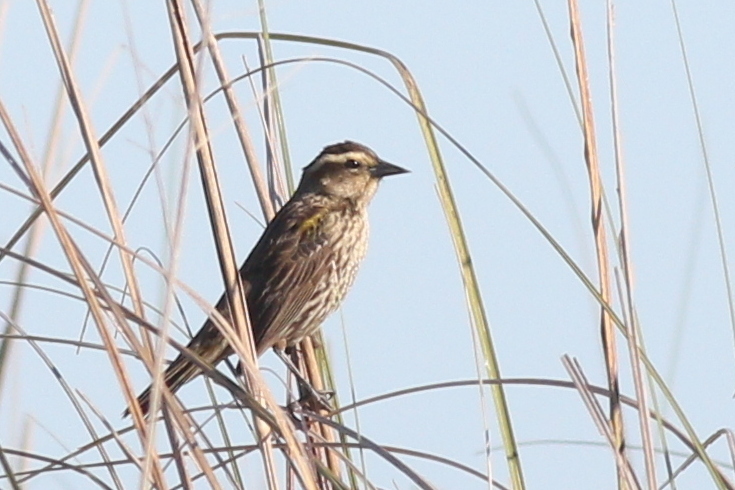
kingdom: Animalia
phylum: Chordata
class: Aves
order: Passeriformes
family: Icteridae
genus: Agelasticus
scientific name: Agelasticus thilius
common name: Yellow-winged blackbird
